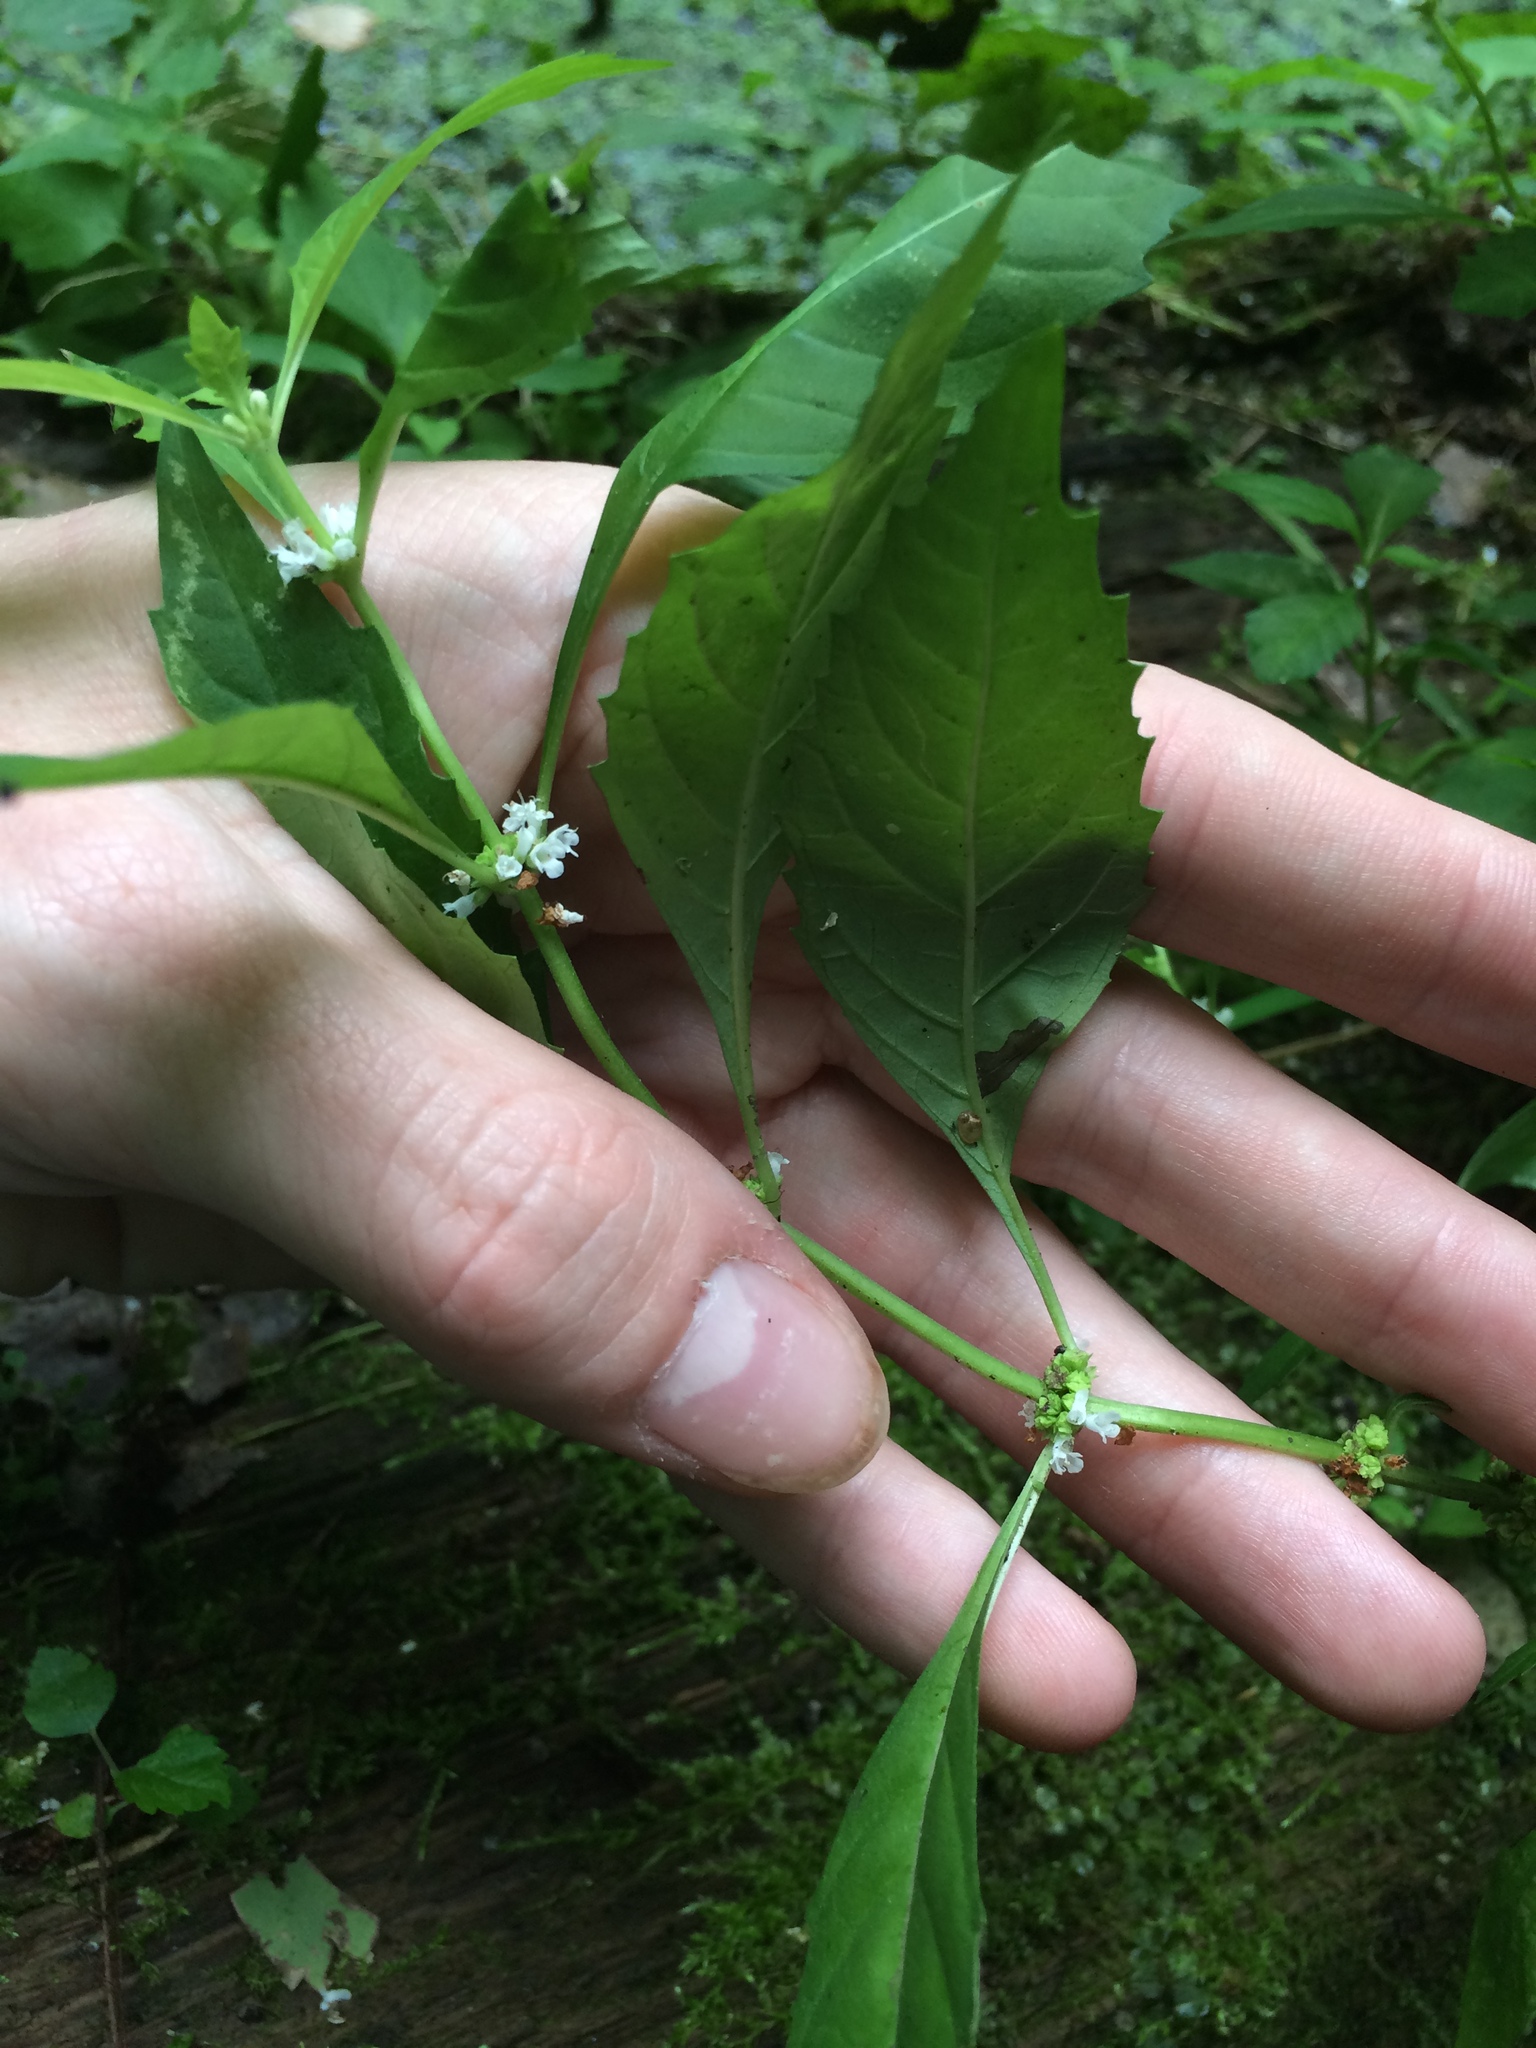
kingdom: Plantae
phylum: Tracheophyta
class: Magnoliopsida
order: Lamiales
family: Lamiaceae
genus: Lycopus
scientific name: Lycopus uniflorus
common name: Northern bugleweed
